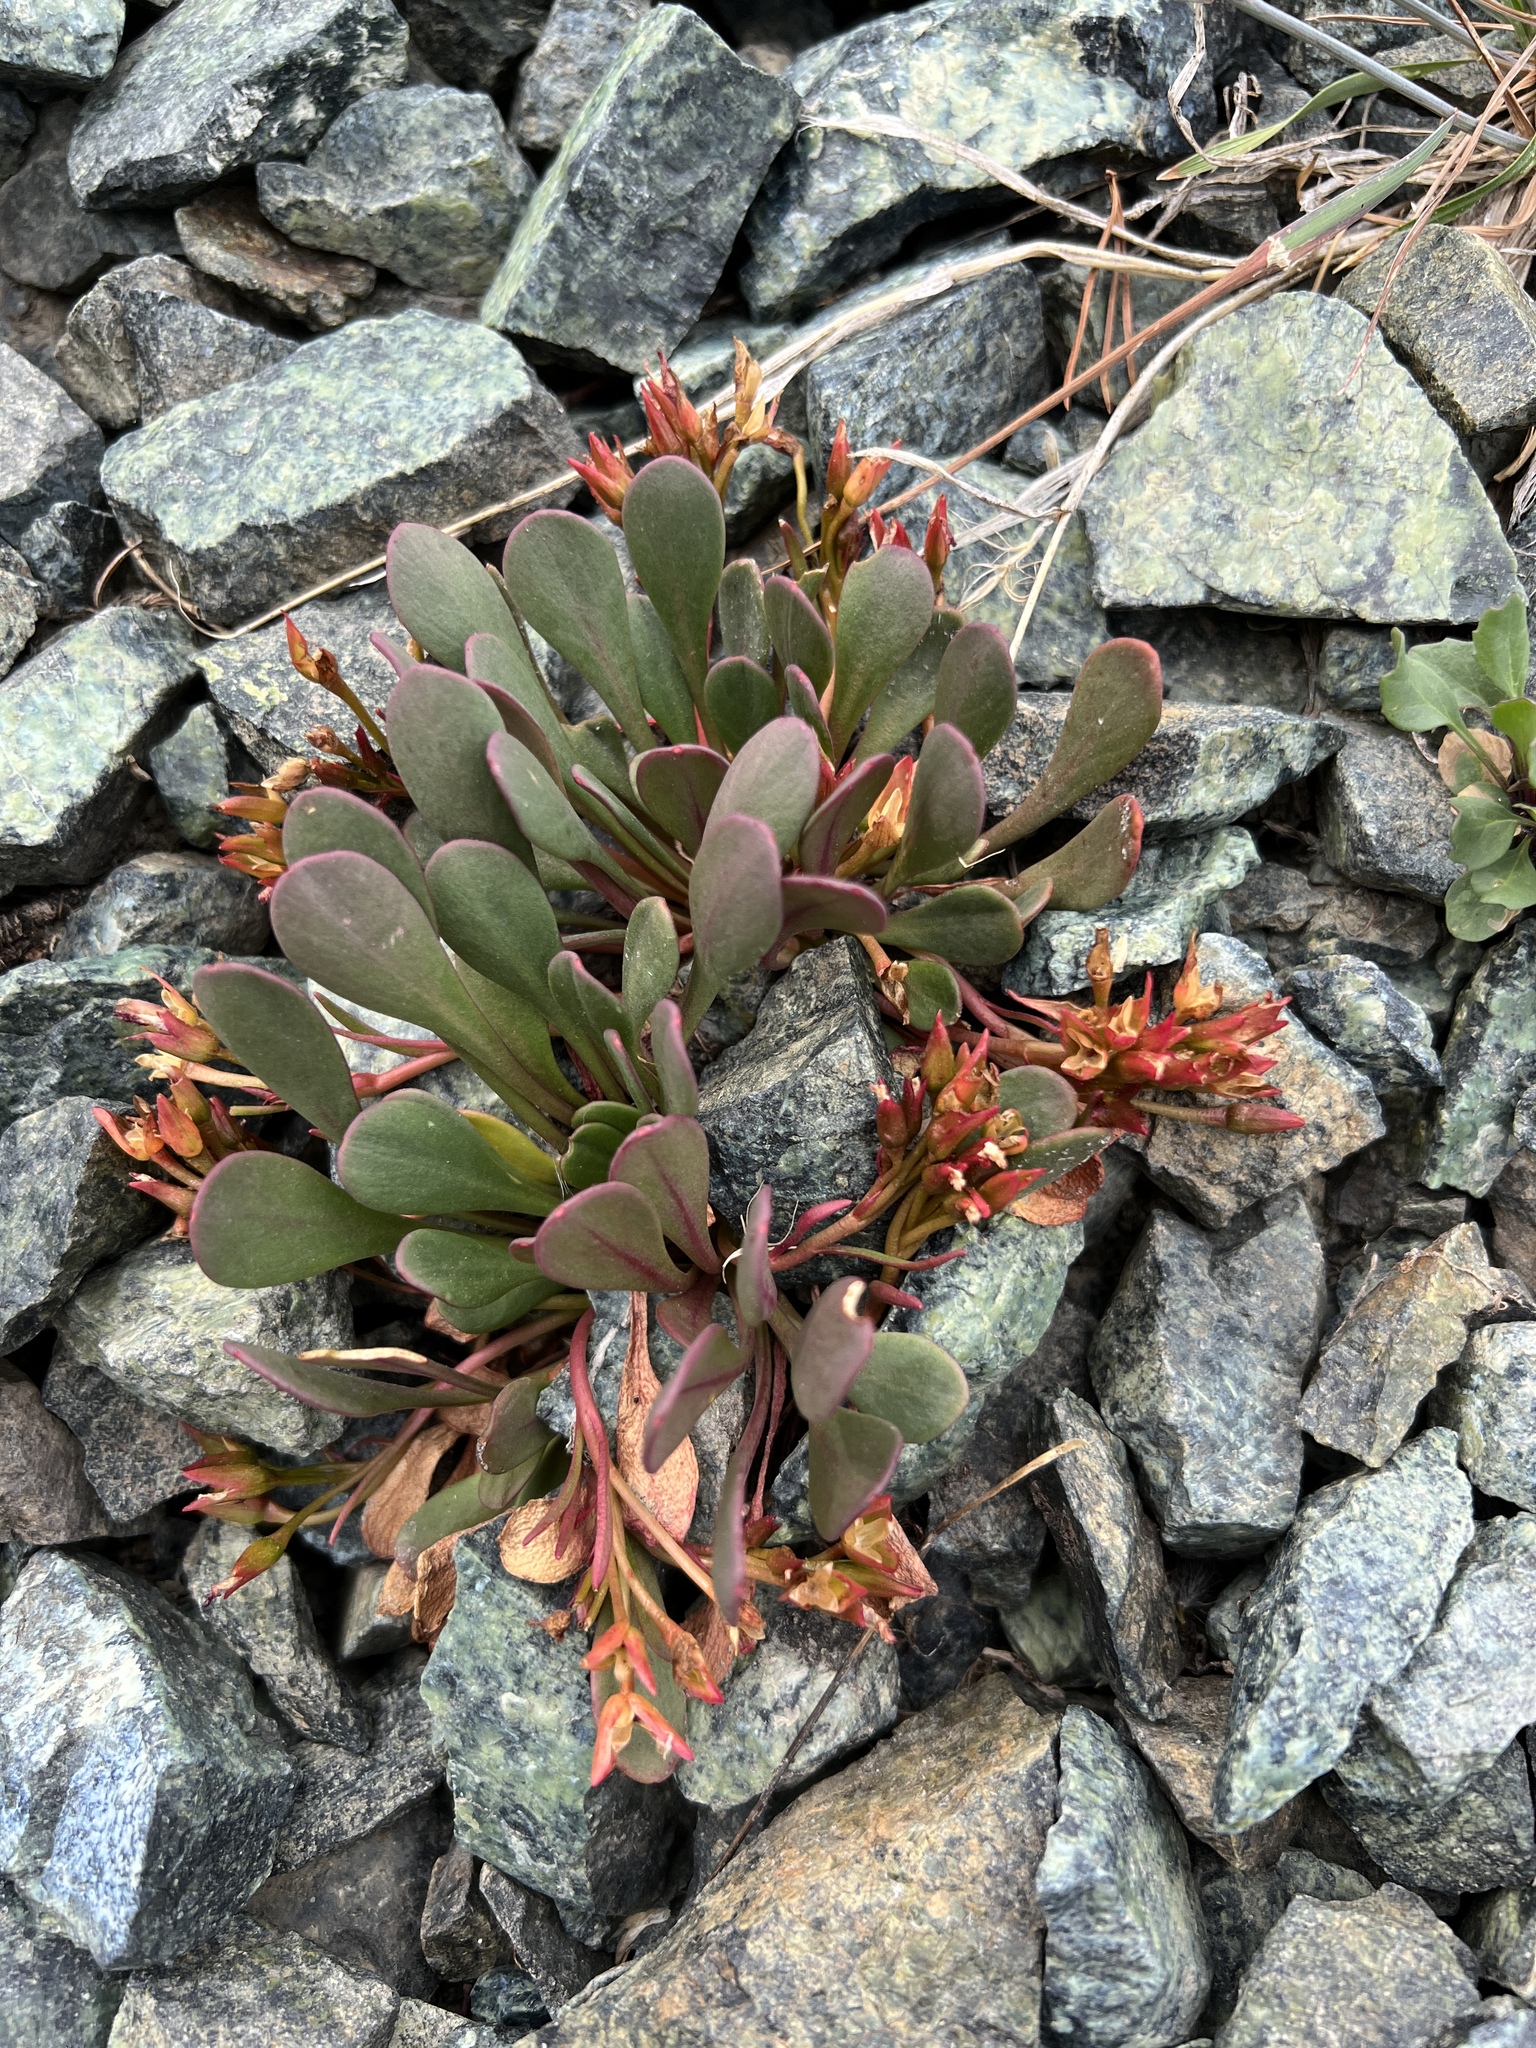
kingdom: Plantae
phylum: Tracheophyta
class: Magnoliopsida
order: Caryophyllales
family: Montiaceae
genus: Claytonia
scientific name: Claytonia megarhiza
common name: Alpine spring beauty
